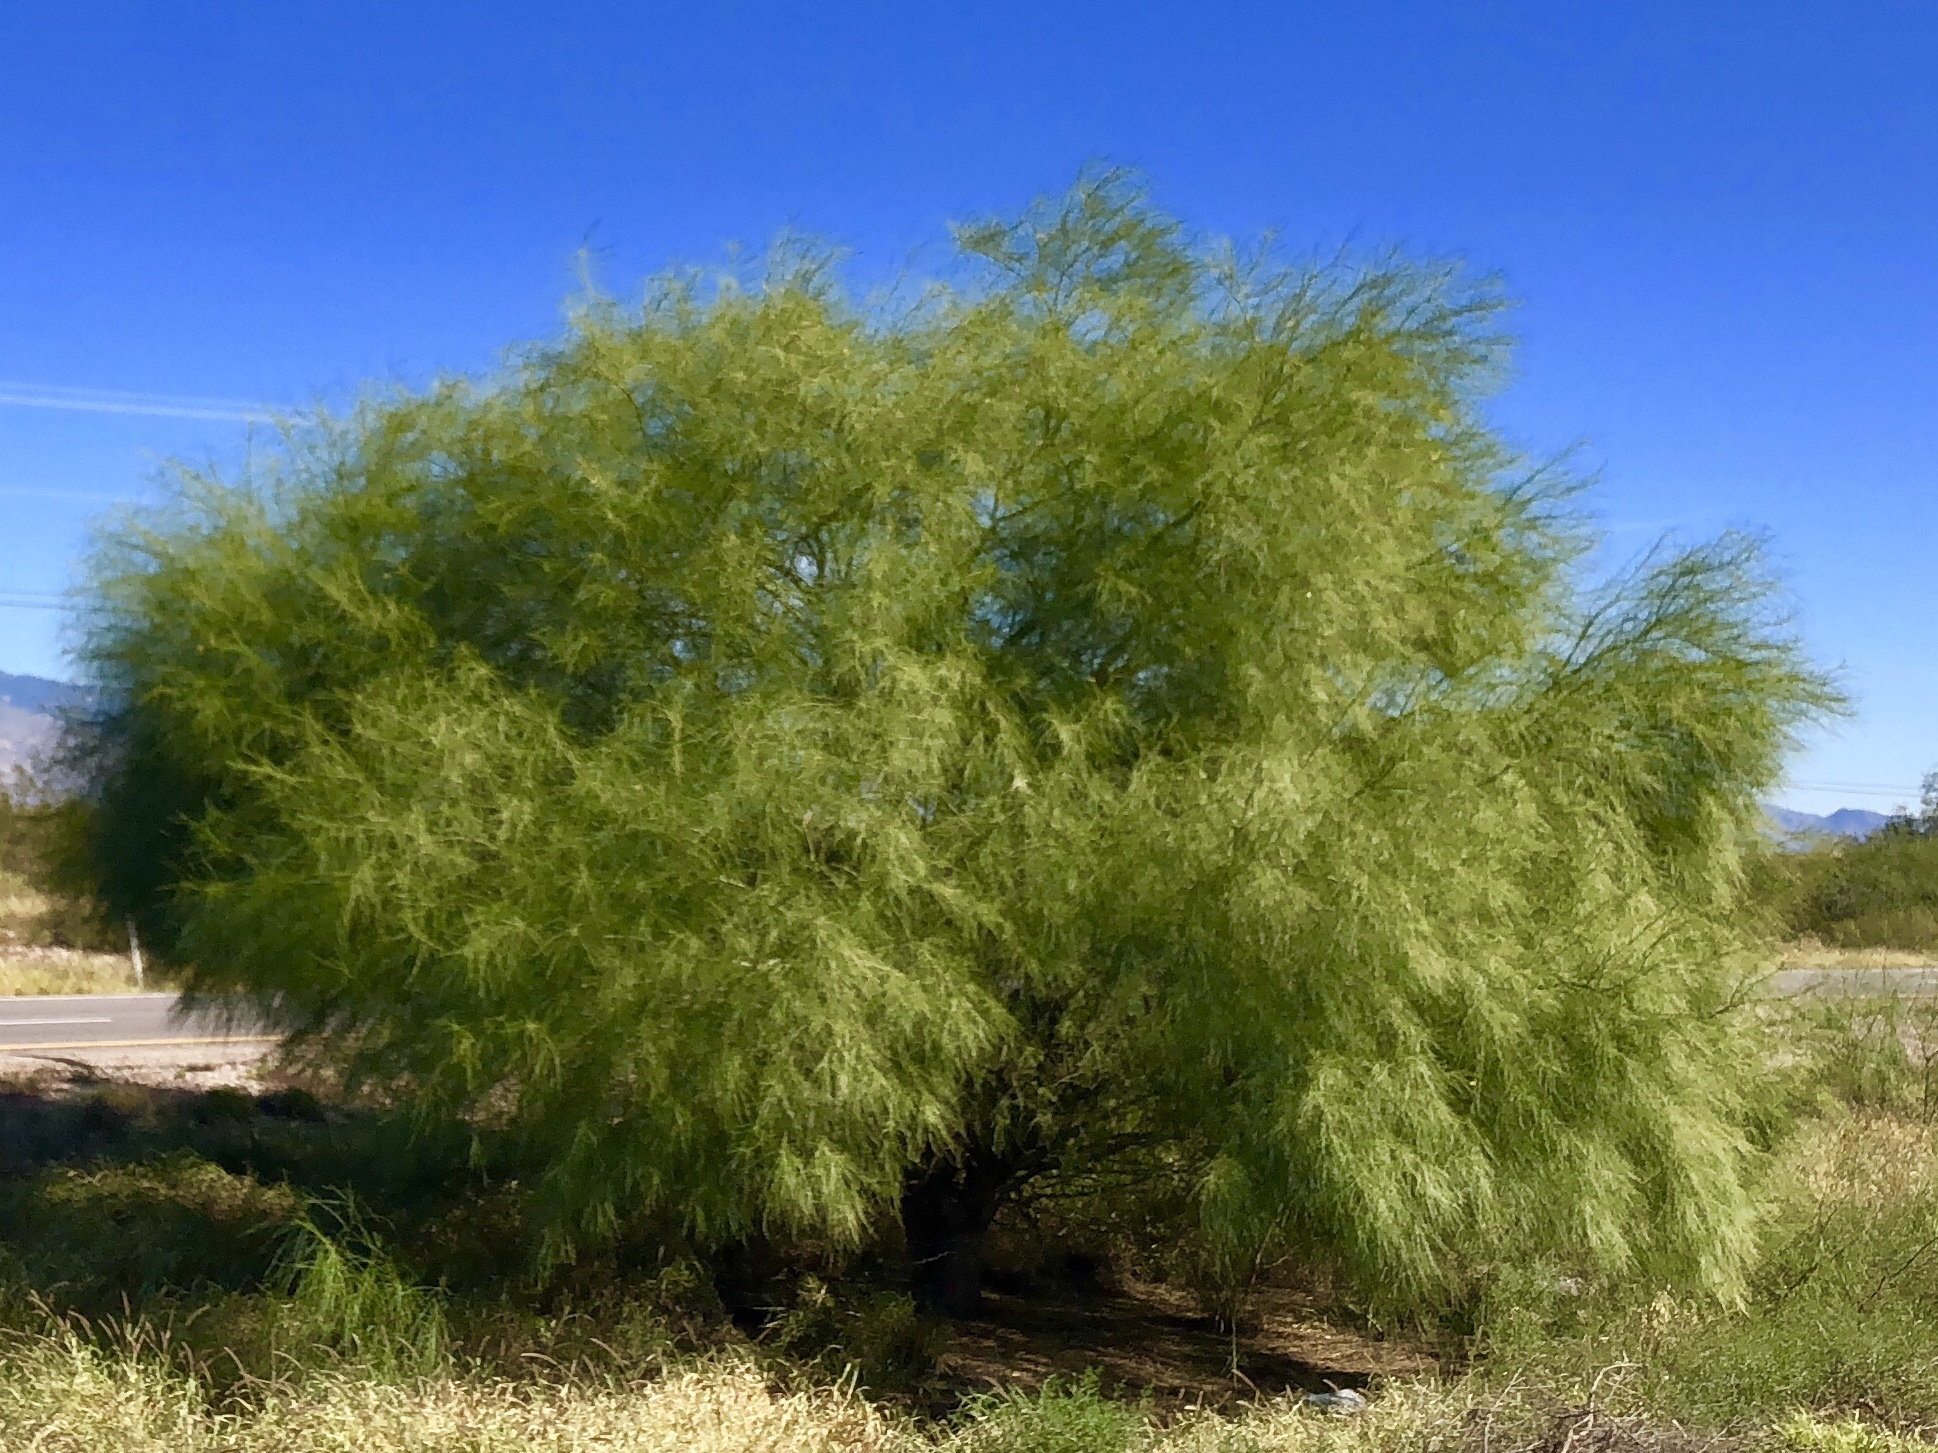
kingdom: Plantae
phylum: Tracheophyta
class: Magnoliopsida
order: Fabales
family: Fabaceae
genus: Parkinsonia
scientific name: Parkinsonia microphylla
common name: Yellow paloverde
